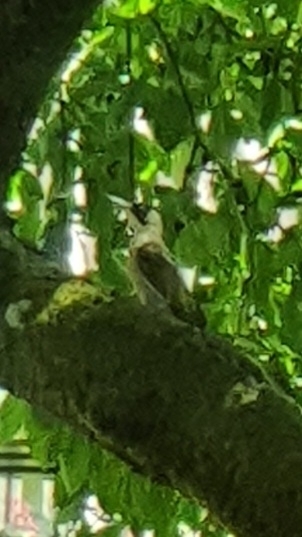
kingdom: Animalia
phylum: Chordata
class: Aves
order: Piciformes
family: Picidae
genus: Picus
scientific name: Picus viridis
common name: European green woodpecker
